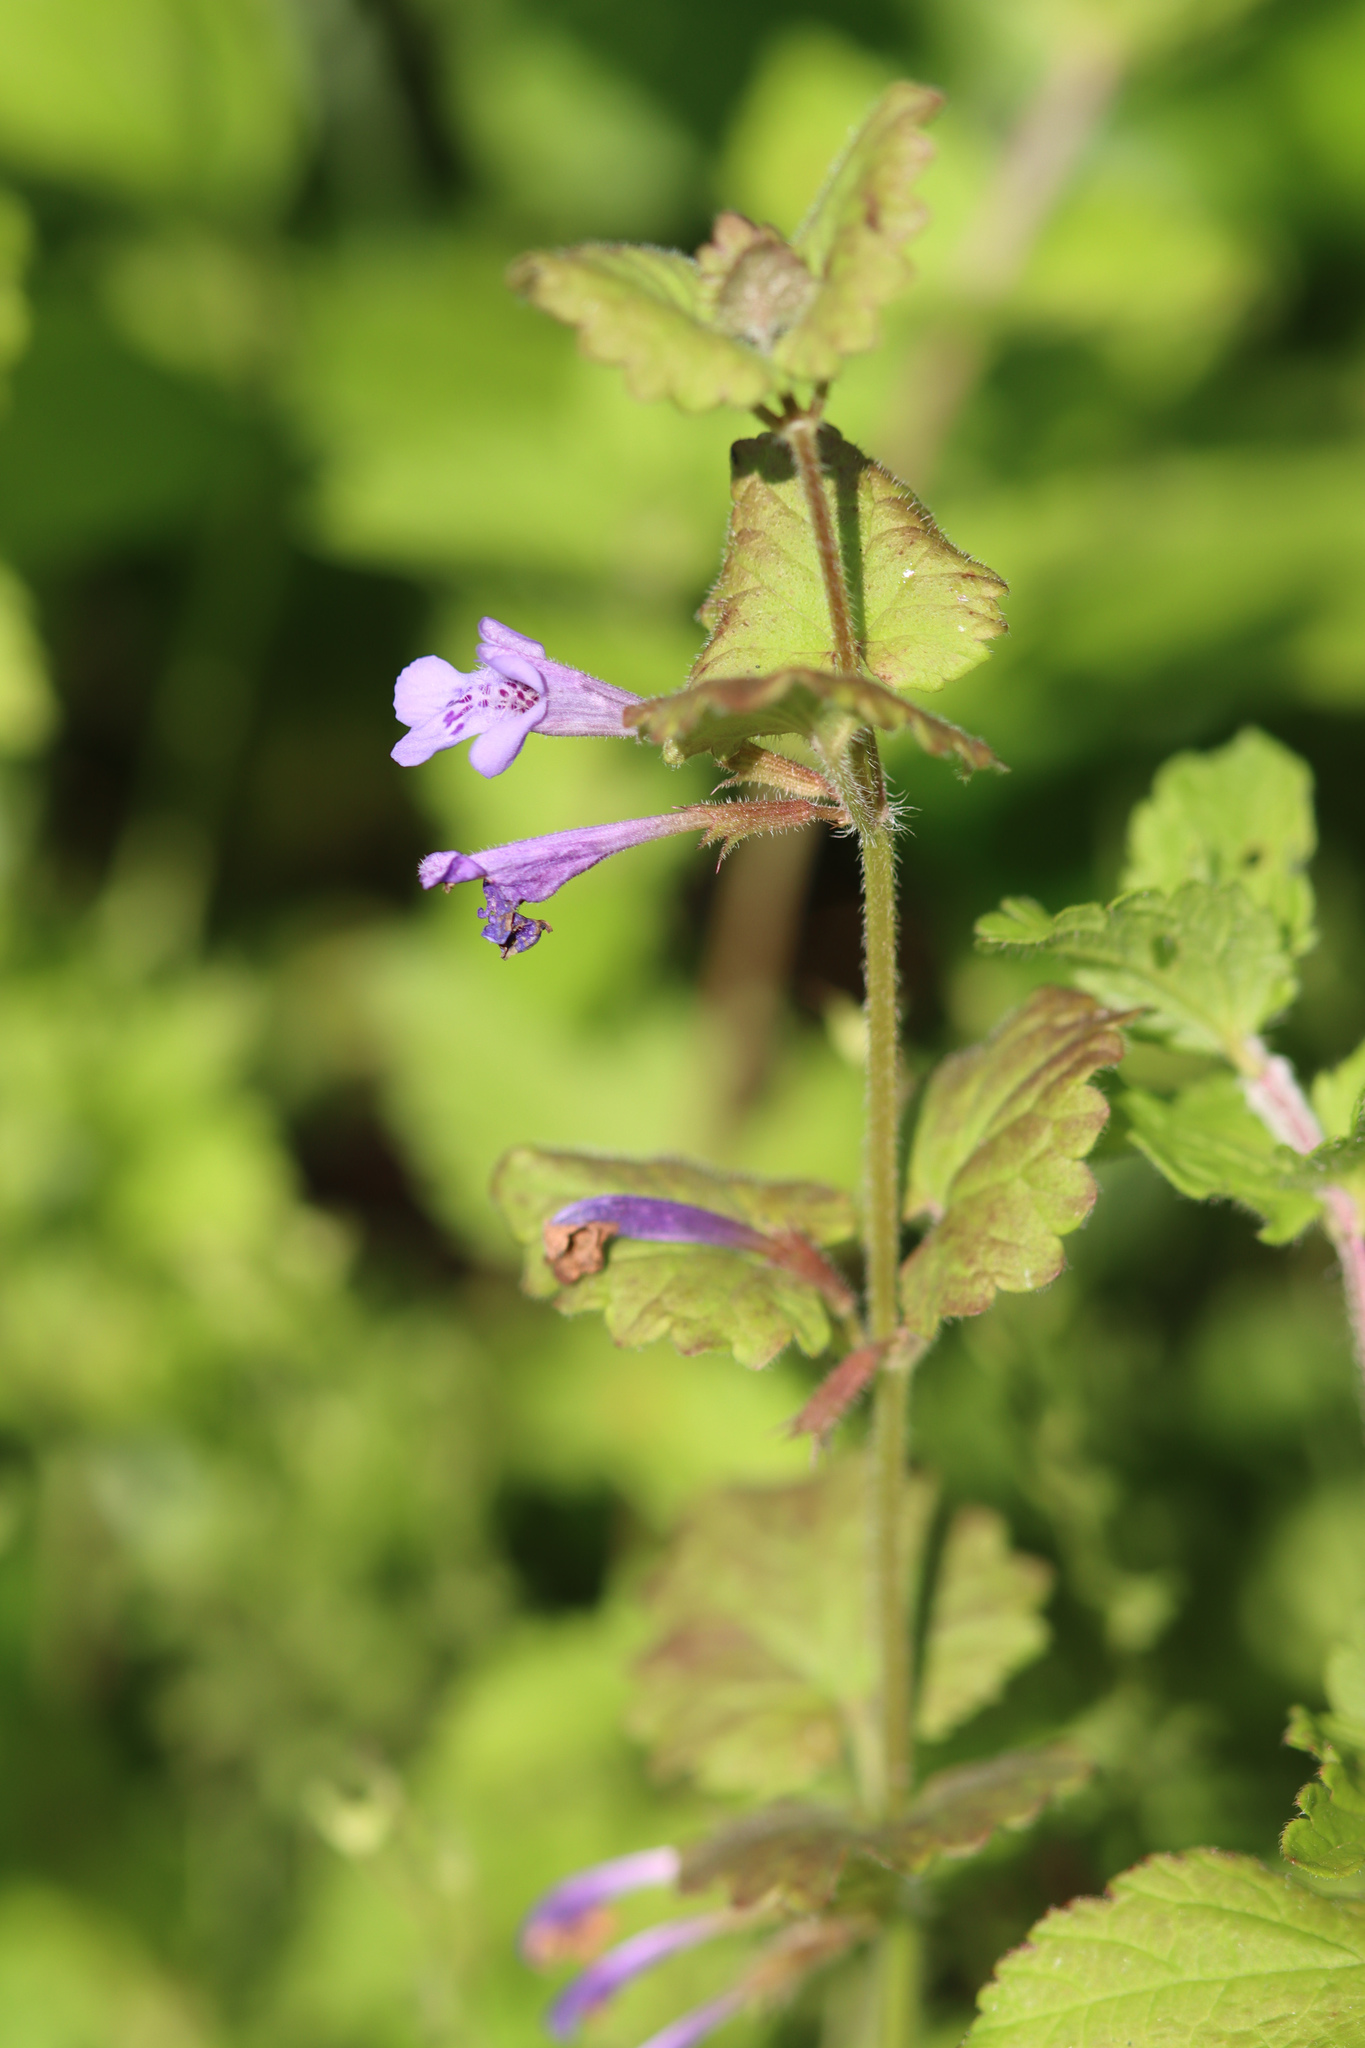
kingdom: Plantae
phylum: Tracheophyta
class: Magnoliopsida
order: Lamiales
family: Lamiaceae
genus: Glechoma
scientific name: Glechoma hederacea
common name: Ground ivy
